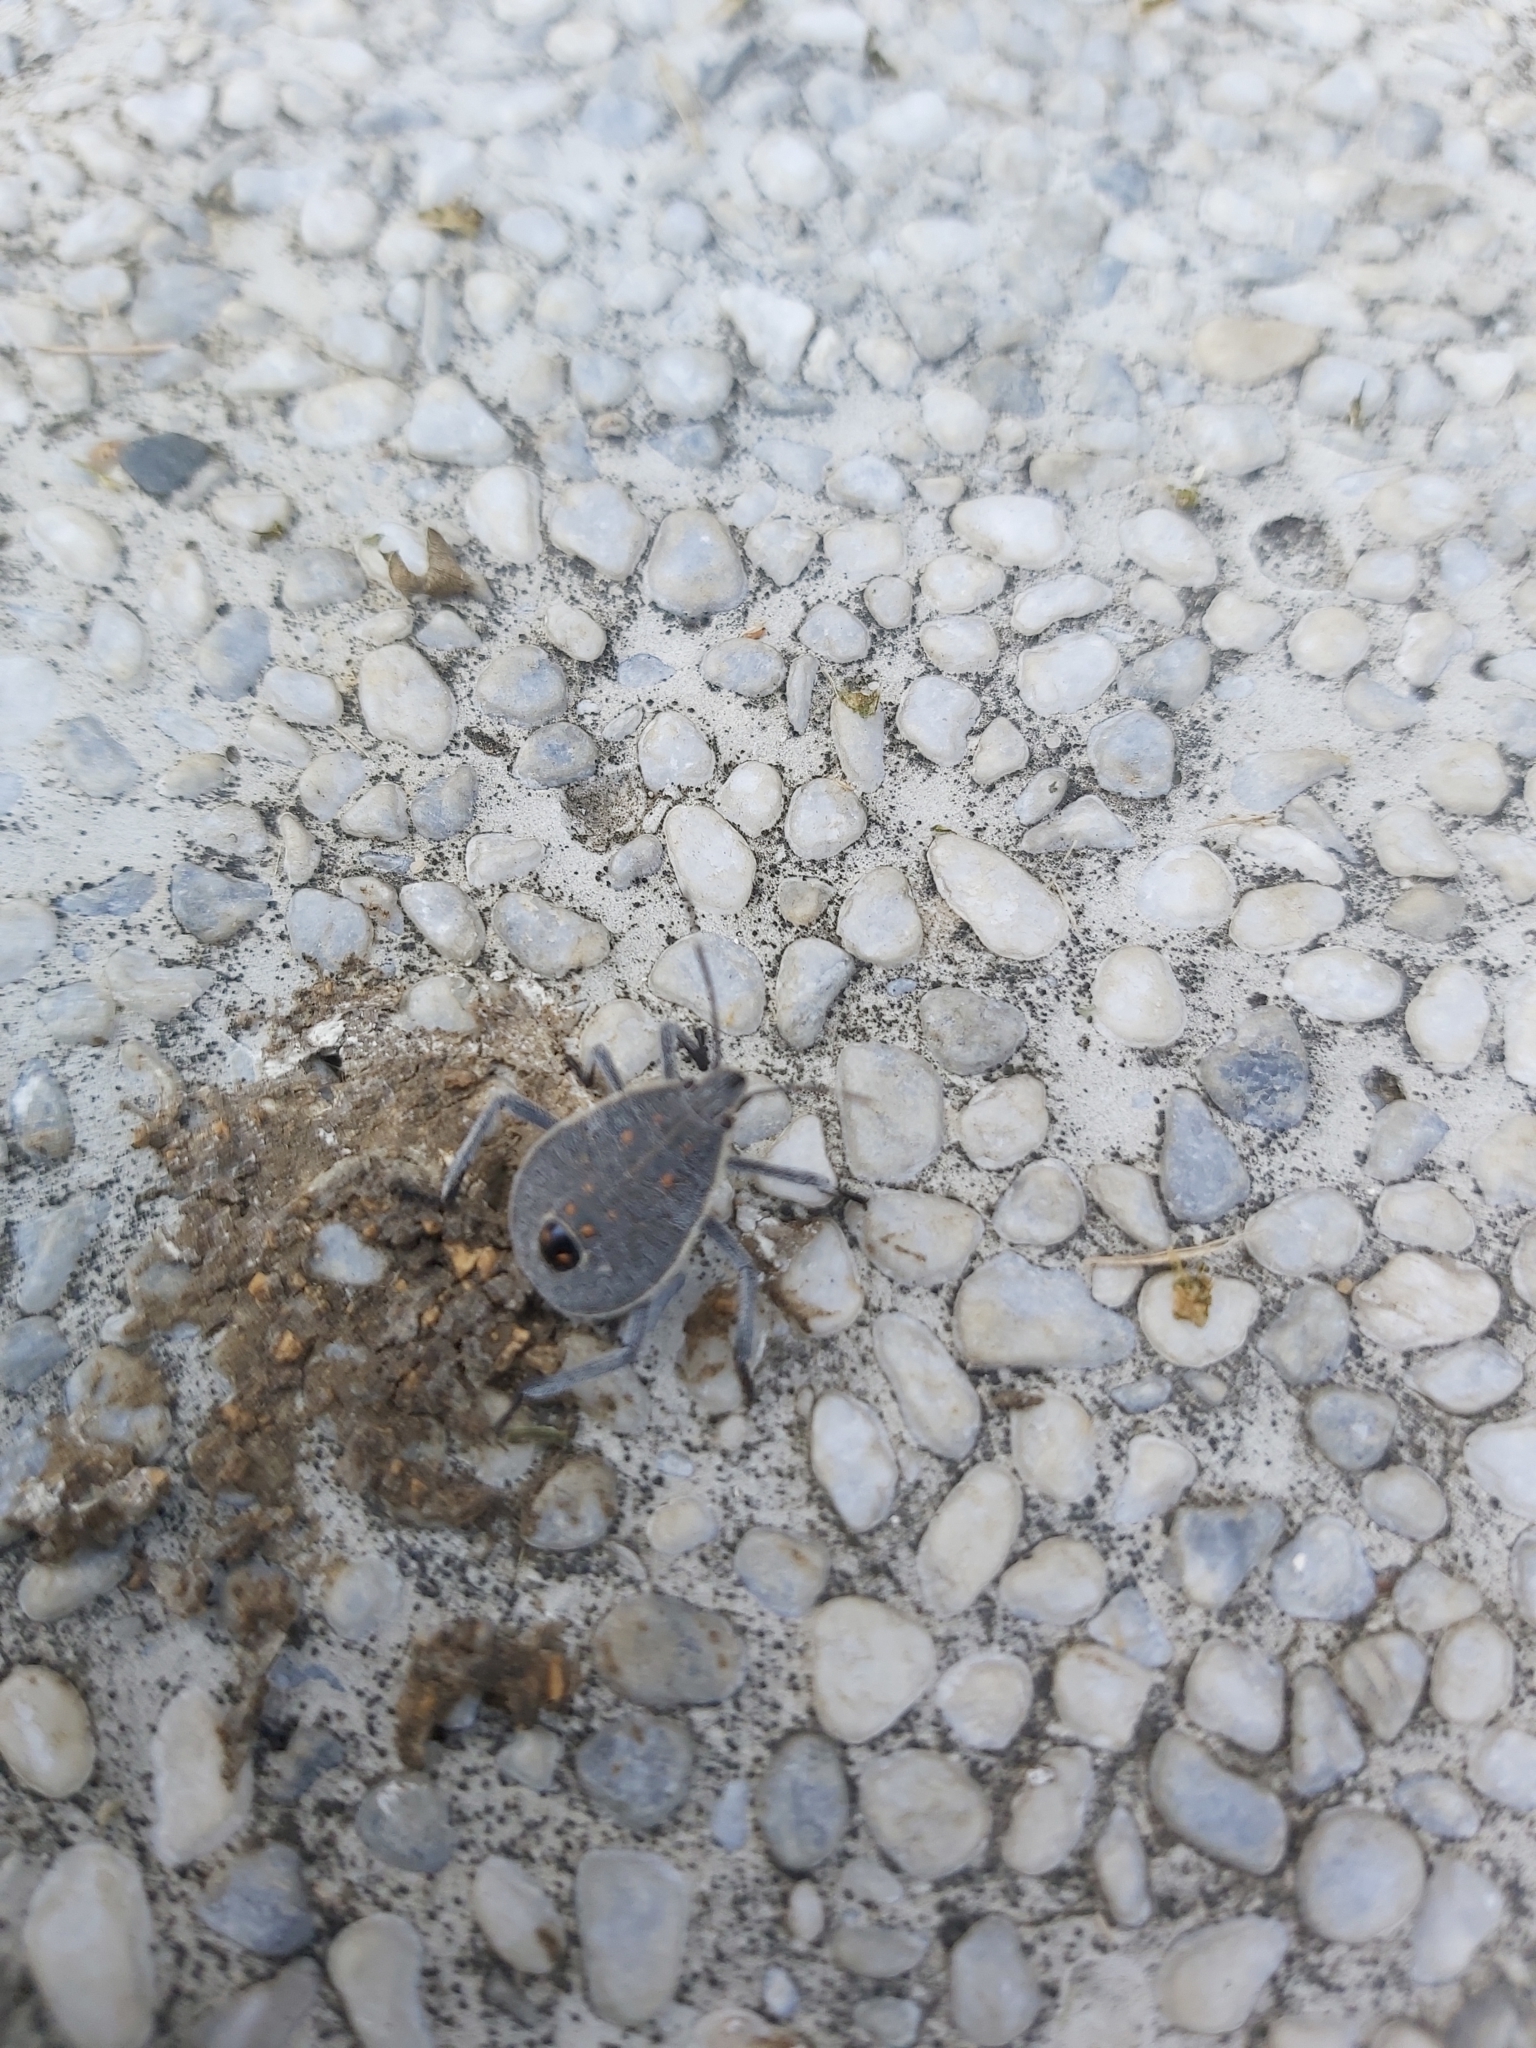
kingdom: Animalia
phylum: Arthropoda
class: Insecta
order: Hemiptera
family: Pentatomidae
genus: Erthesina
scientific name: Erthesina fullo
